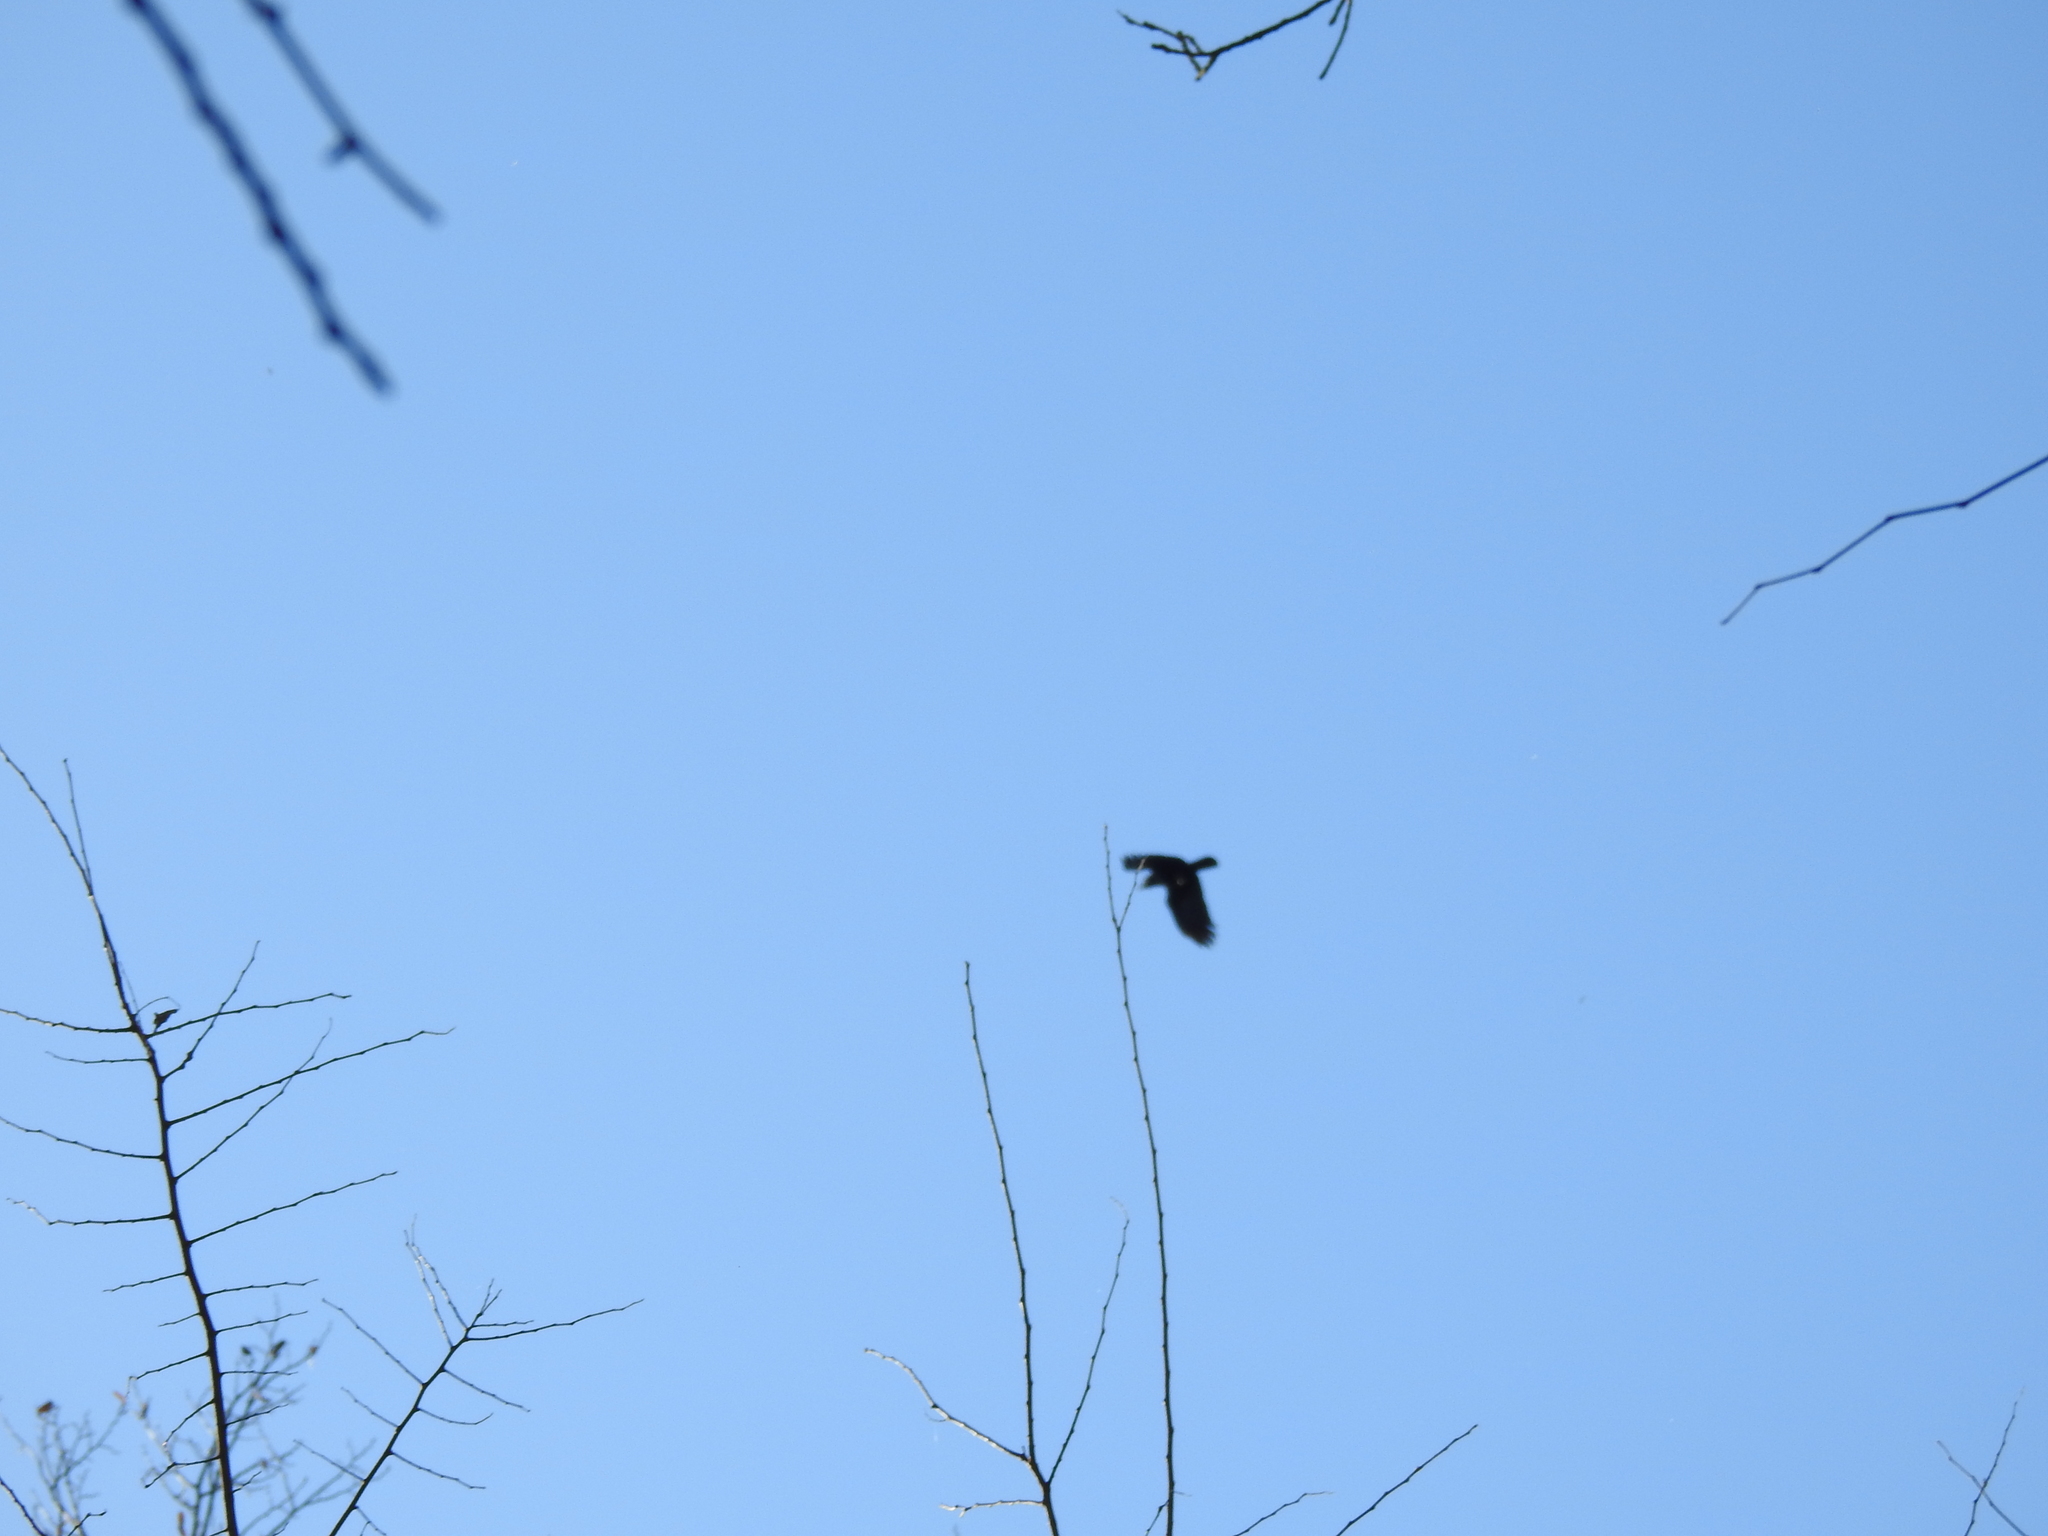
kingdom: Animalia
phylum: Chordata
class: Aves
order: Passeriformes
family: Corvidae
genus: Corvus
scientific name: Corvus brachyrhynchos
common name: American crow
